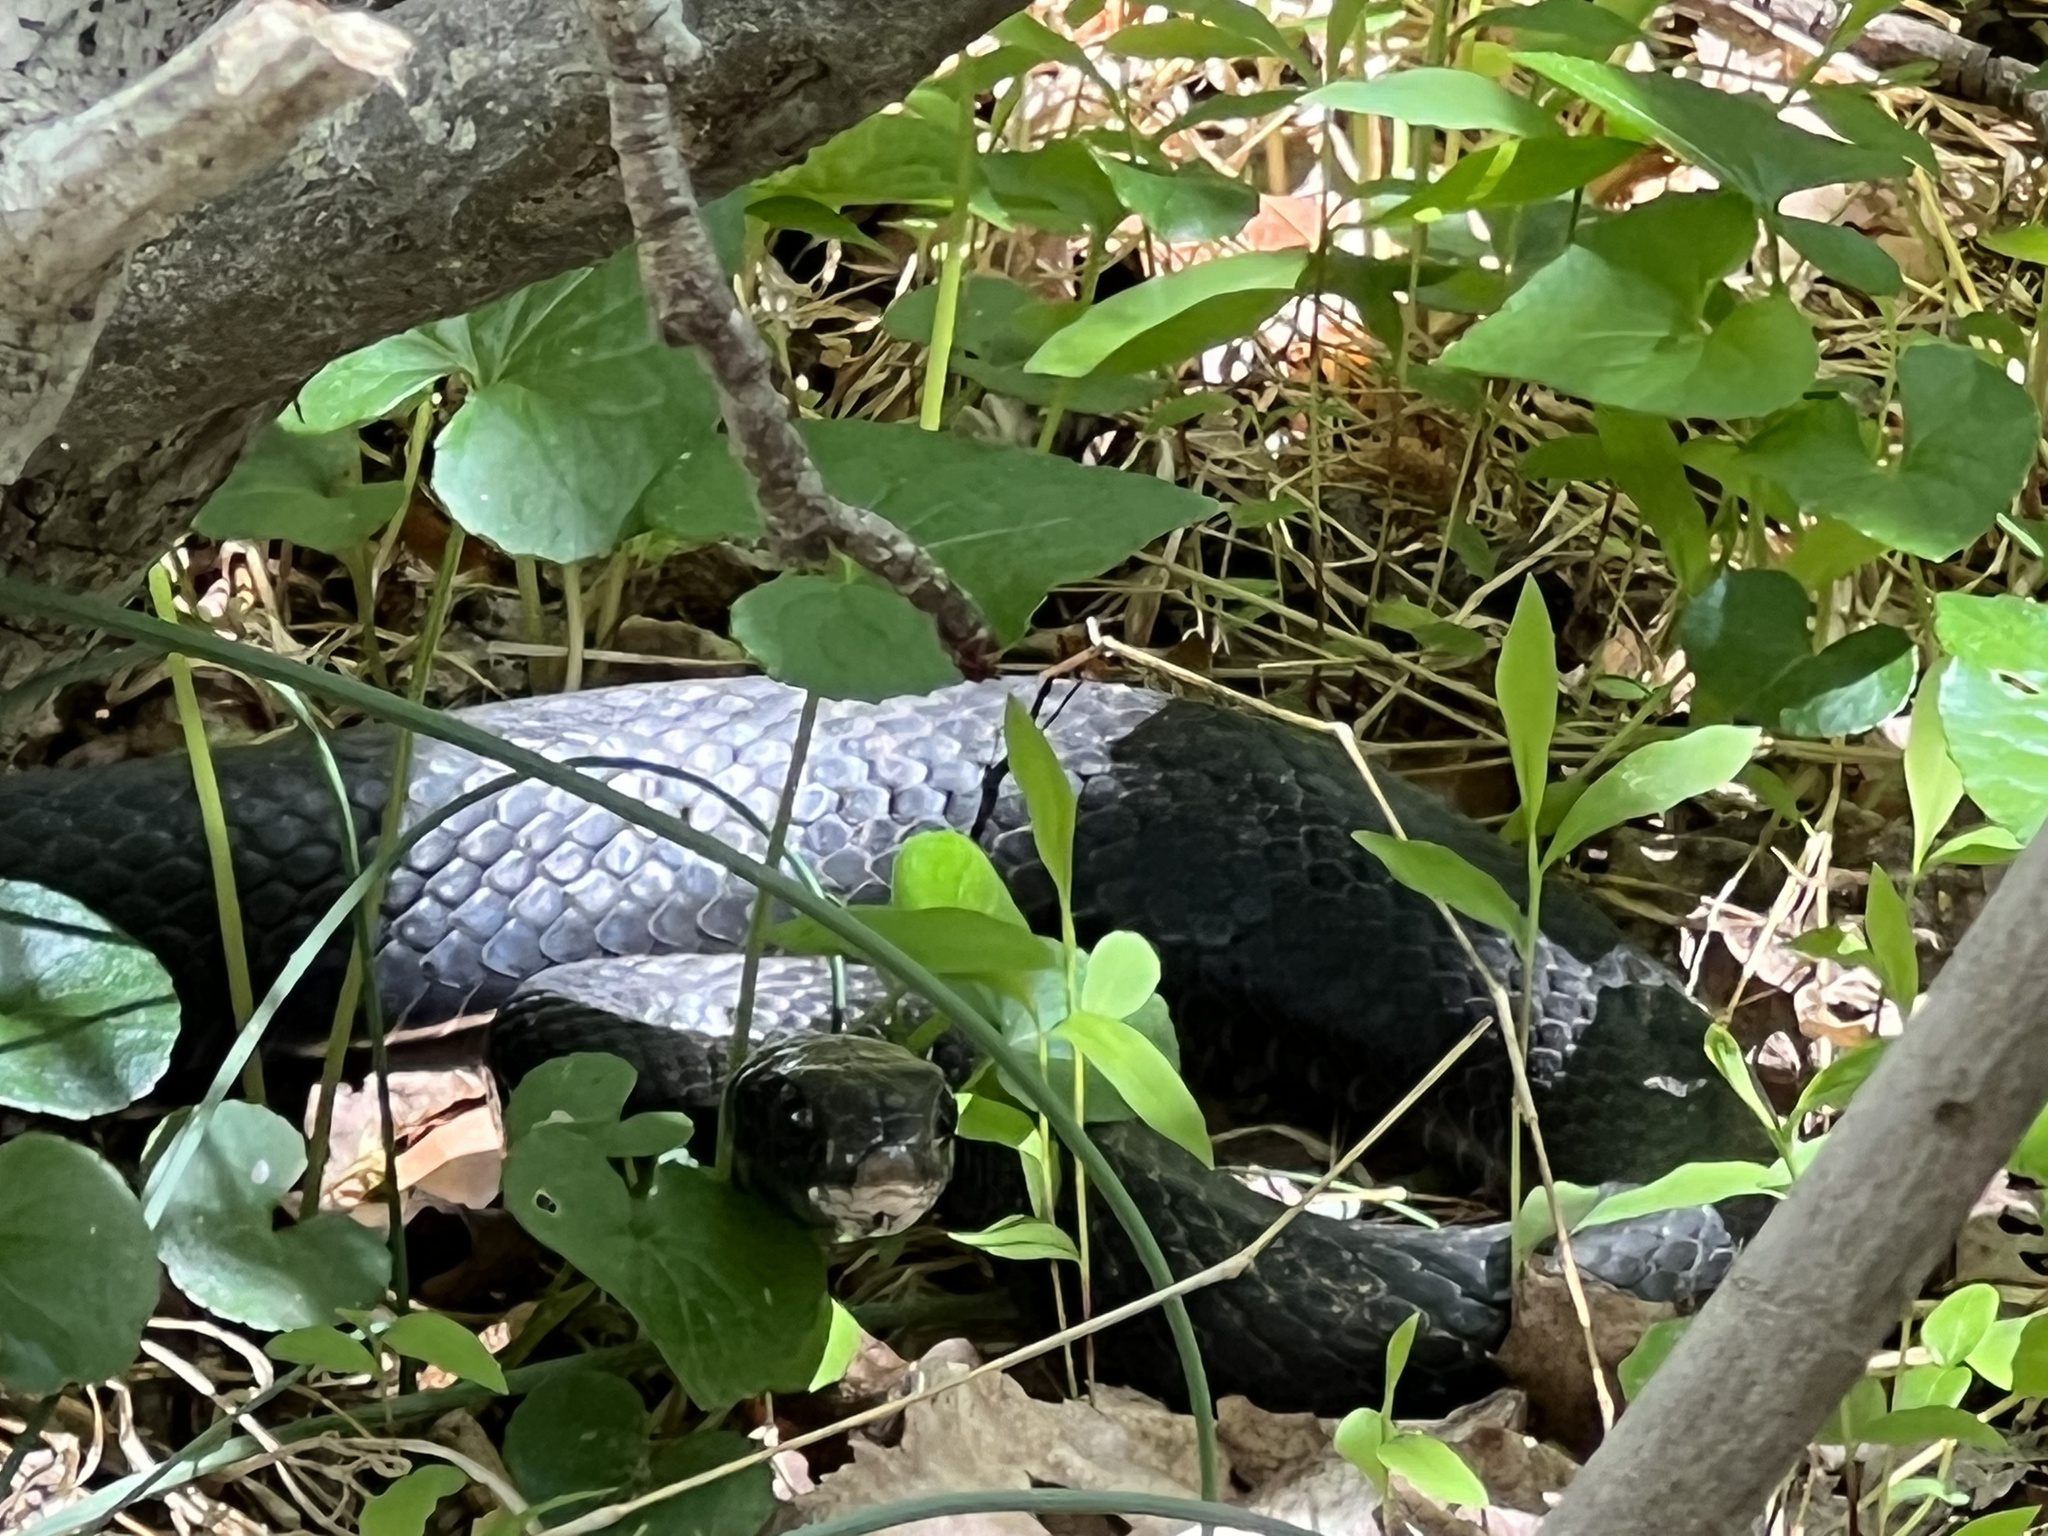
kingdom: Animalia
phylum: Chordata
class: Squamata
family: Colubridae
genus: Coluber
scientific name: Coluber constrictor
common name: Eastern racer
